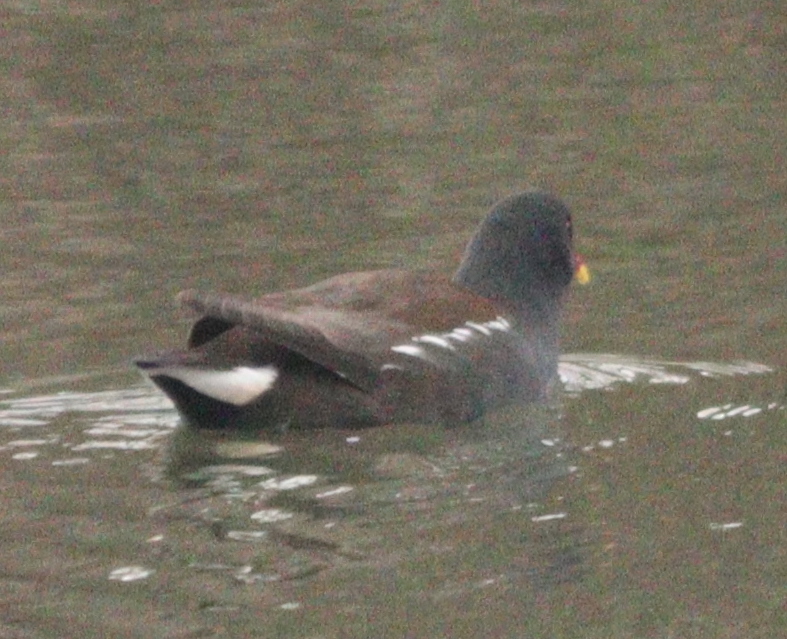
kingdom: Animalia
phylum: Chordata
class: Aves
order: Gruiformes
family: Rallidae
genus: Gallinula
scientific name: Gallinula chloropus
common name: Common moorhen
